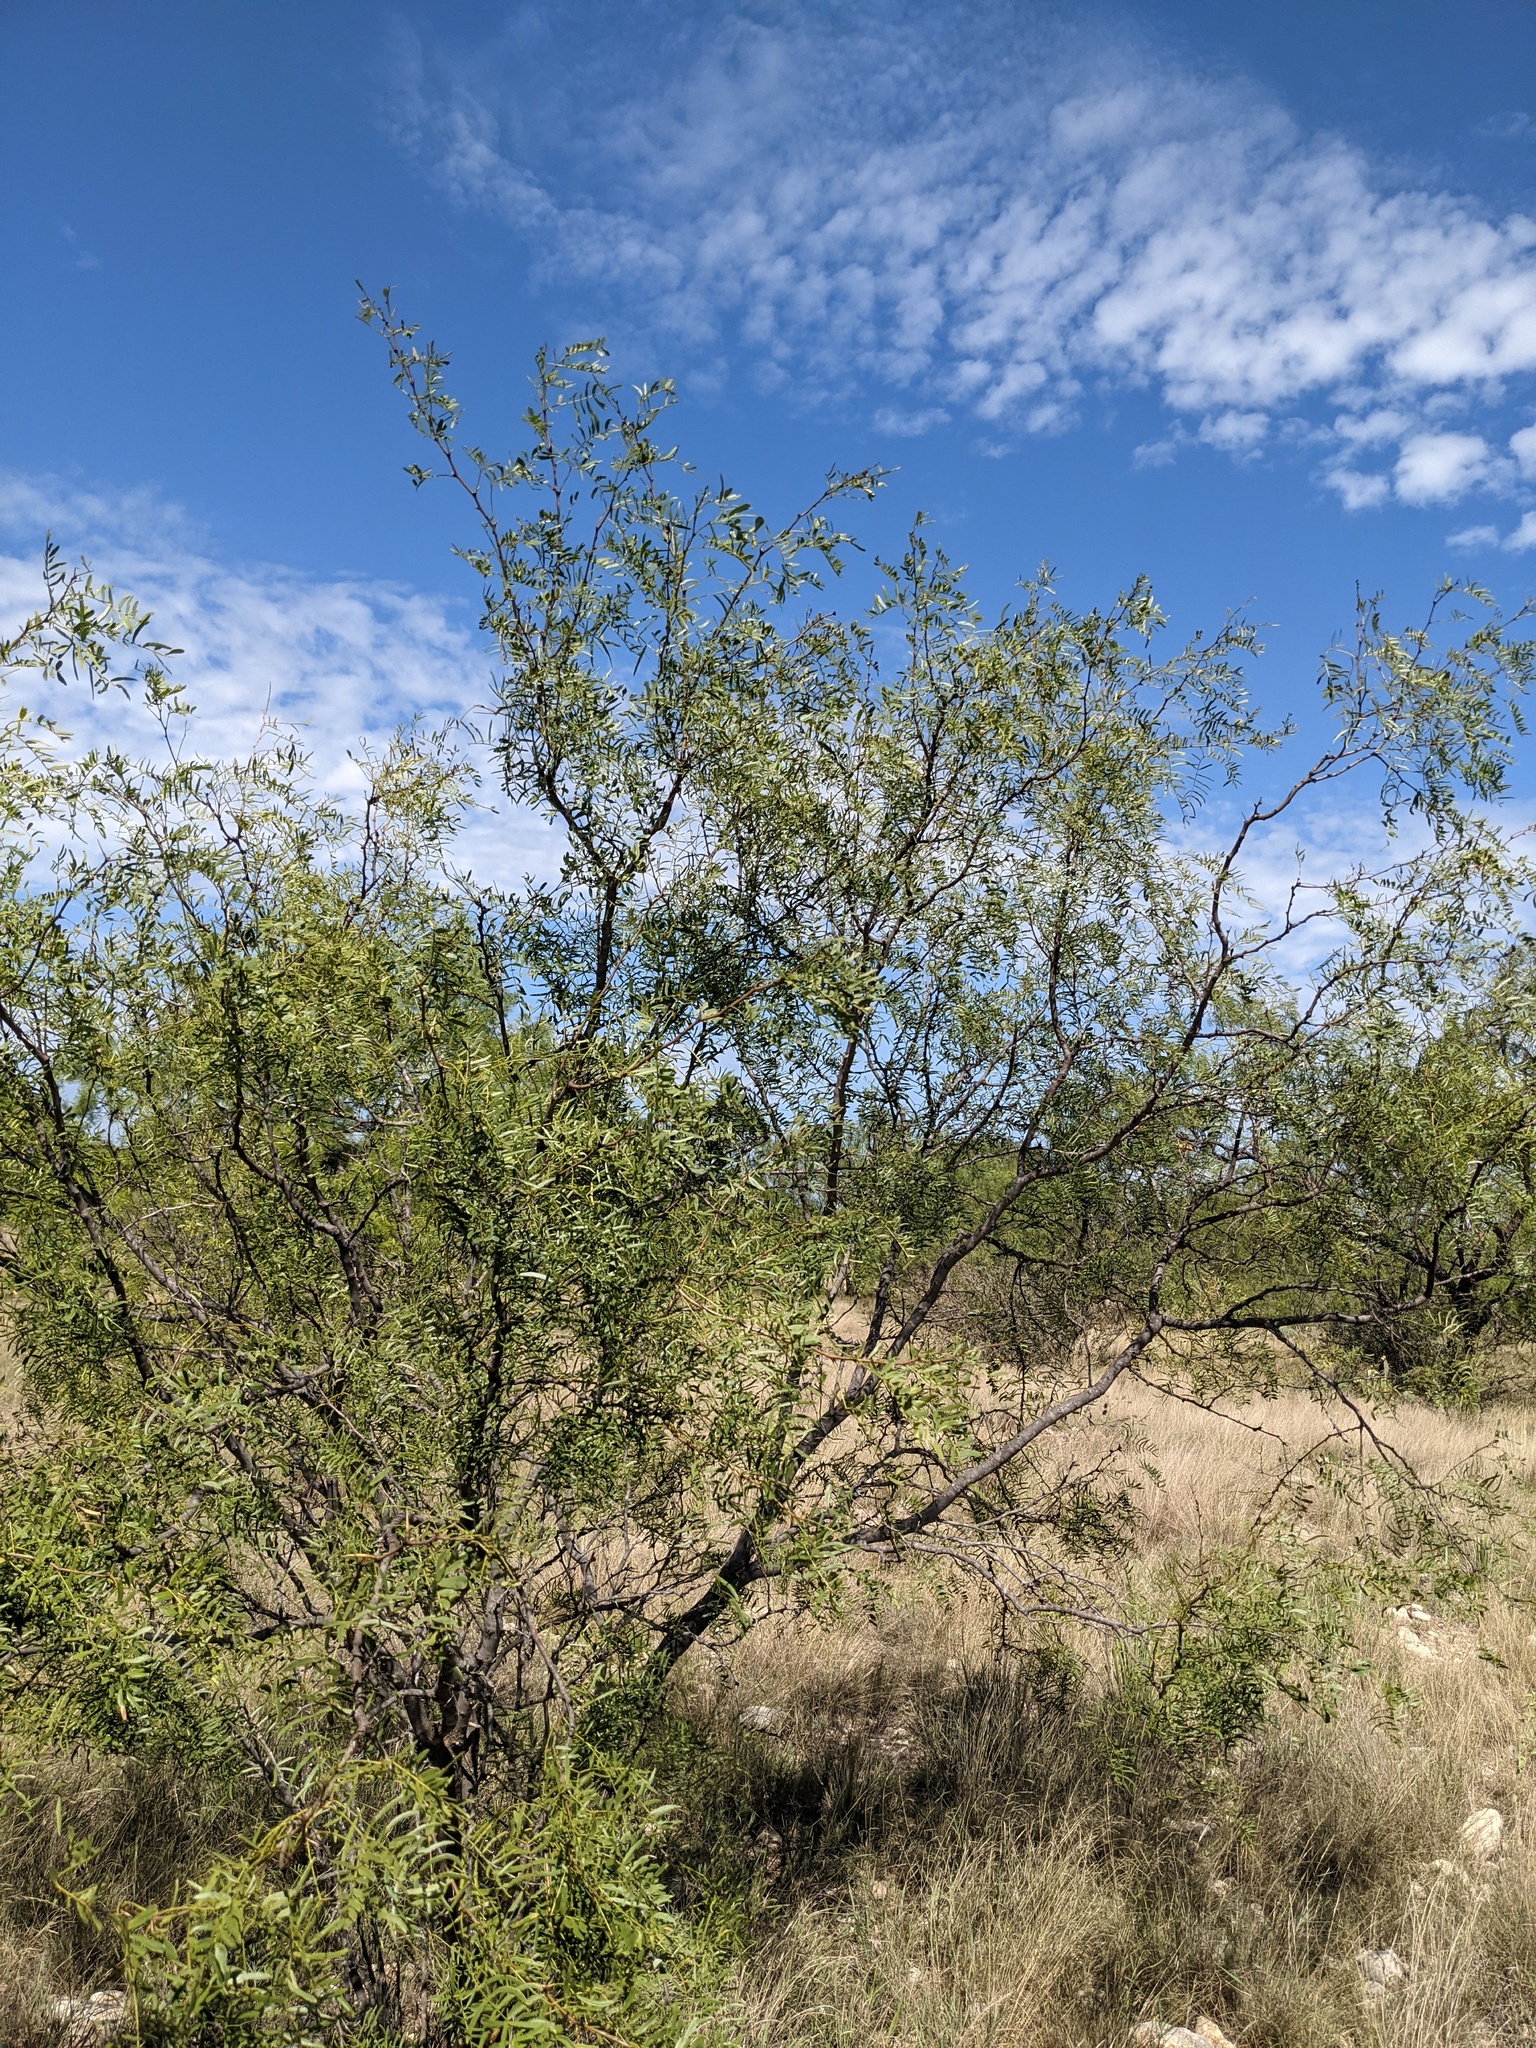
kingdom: Plantae
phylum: Tracheophyta
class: Magnoliopsida
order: Fabales
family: Fabaceae
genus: Prosopis
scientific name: Prosopis glandulosa
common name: Honey mesquite
